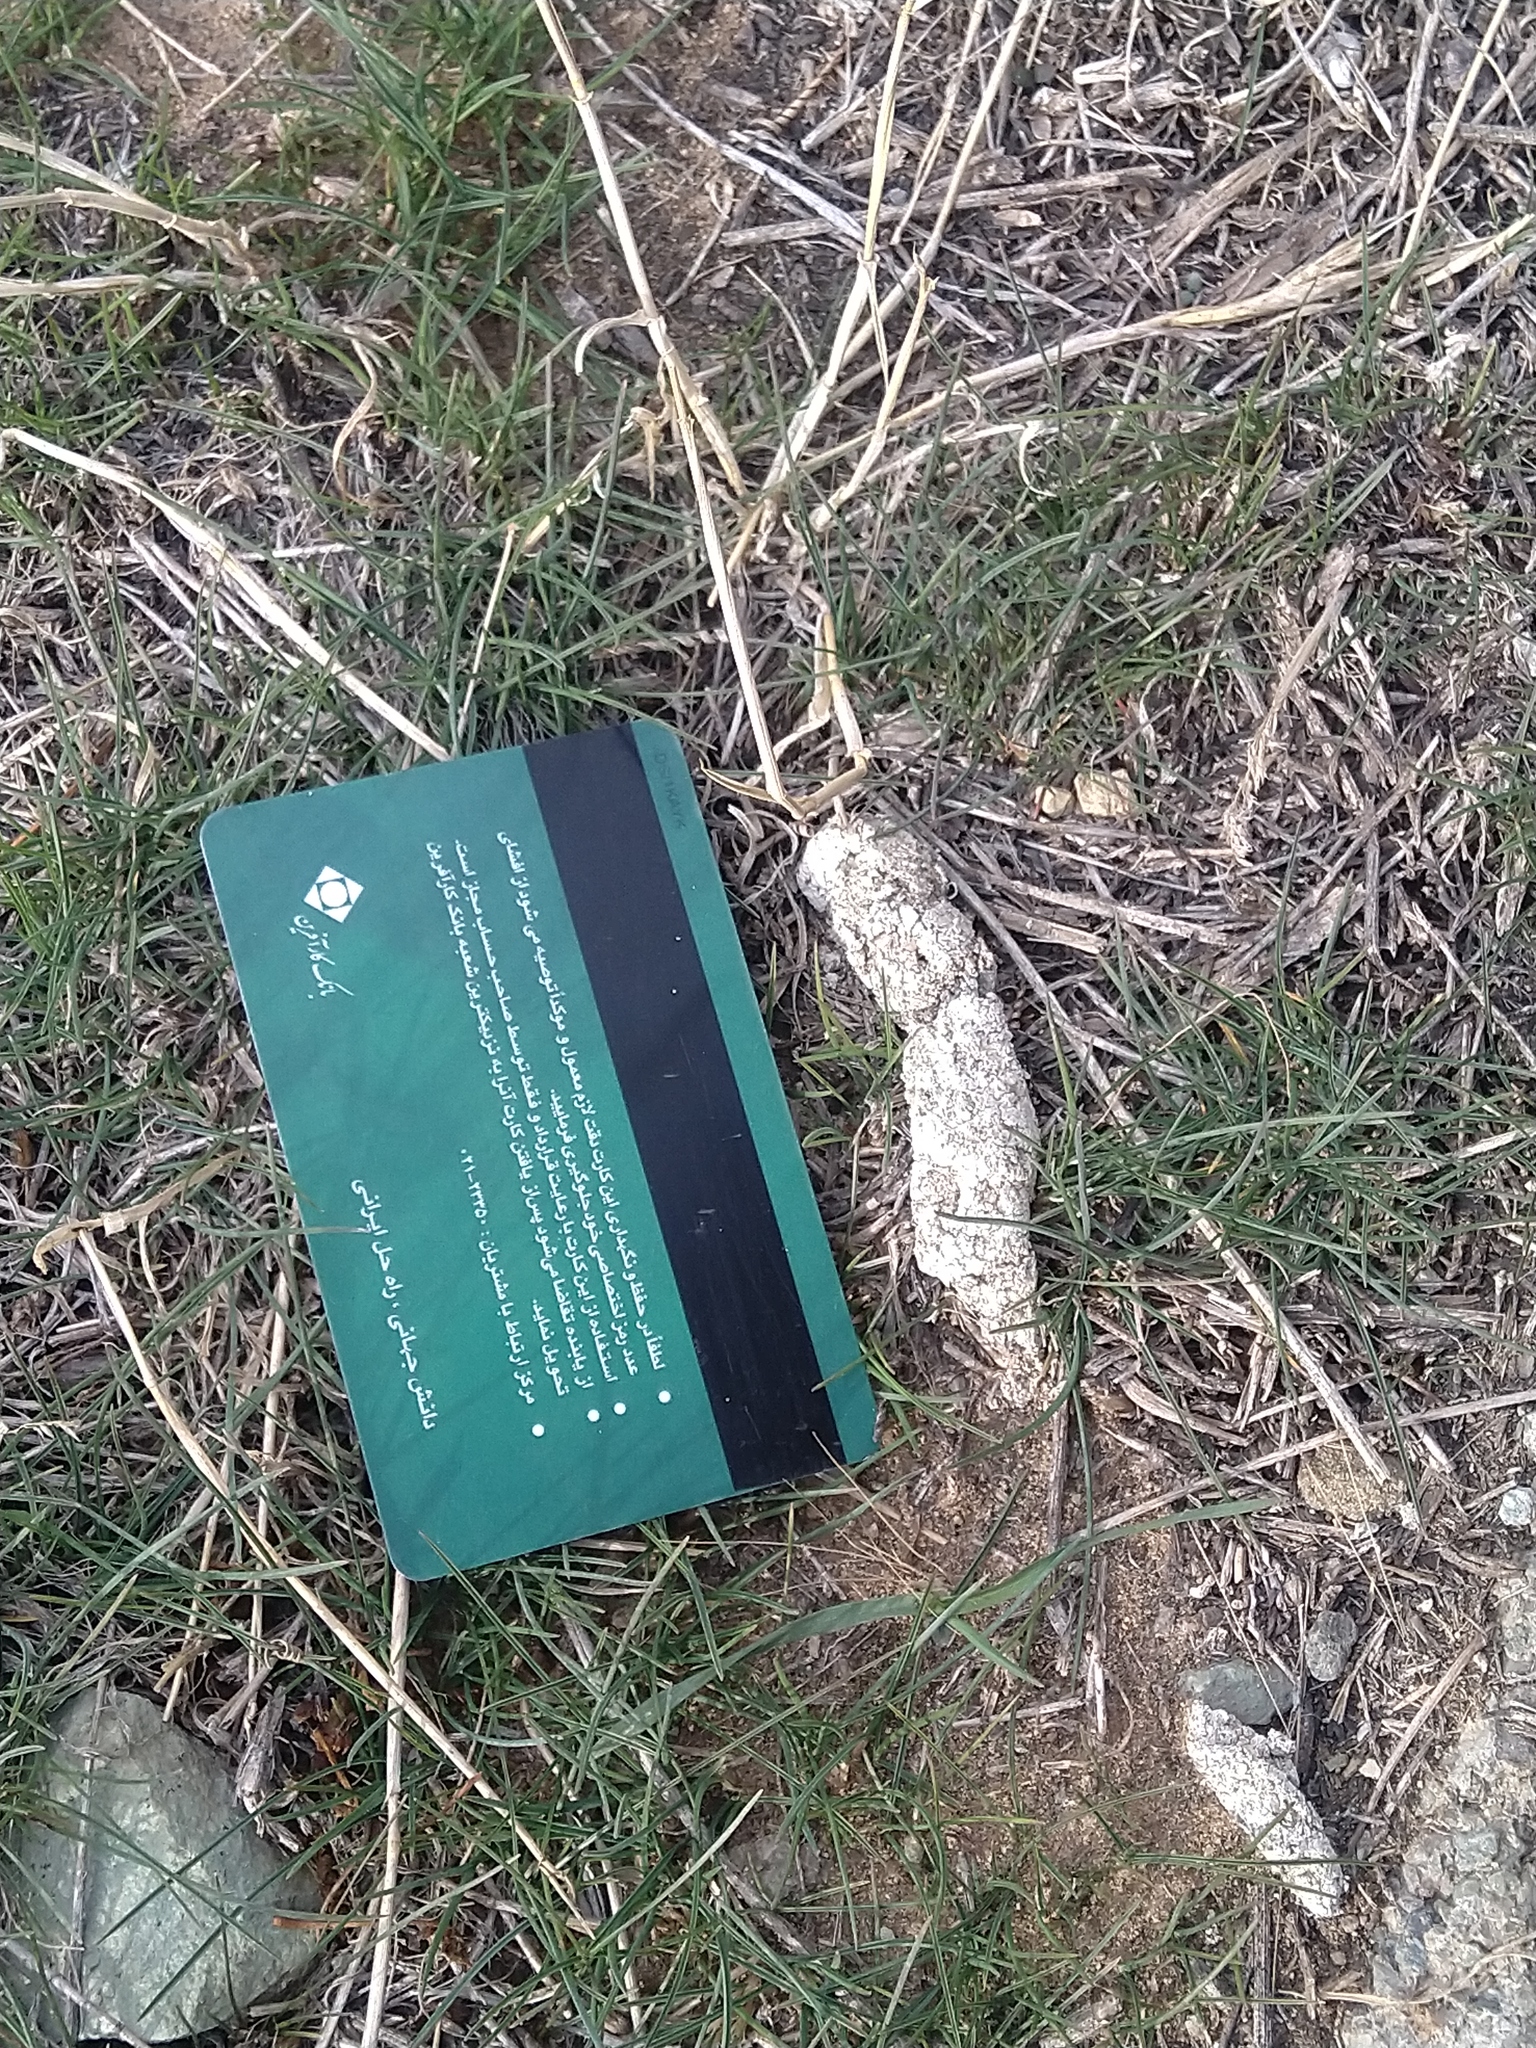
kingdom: Animalia
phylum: Chordata
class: Mammalia
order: Carnivora
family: Canidae
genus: Vulpes
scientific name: Vulpes vulpes
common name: Red fox
